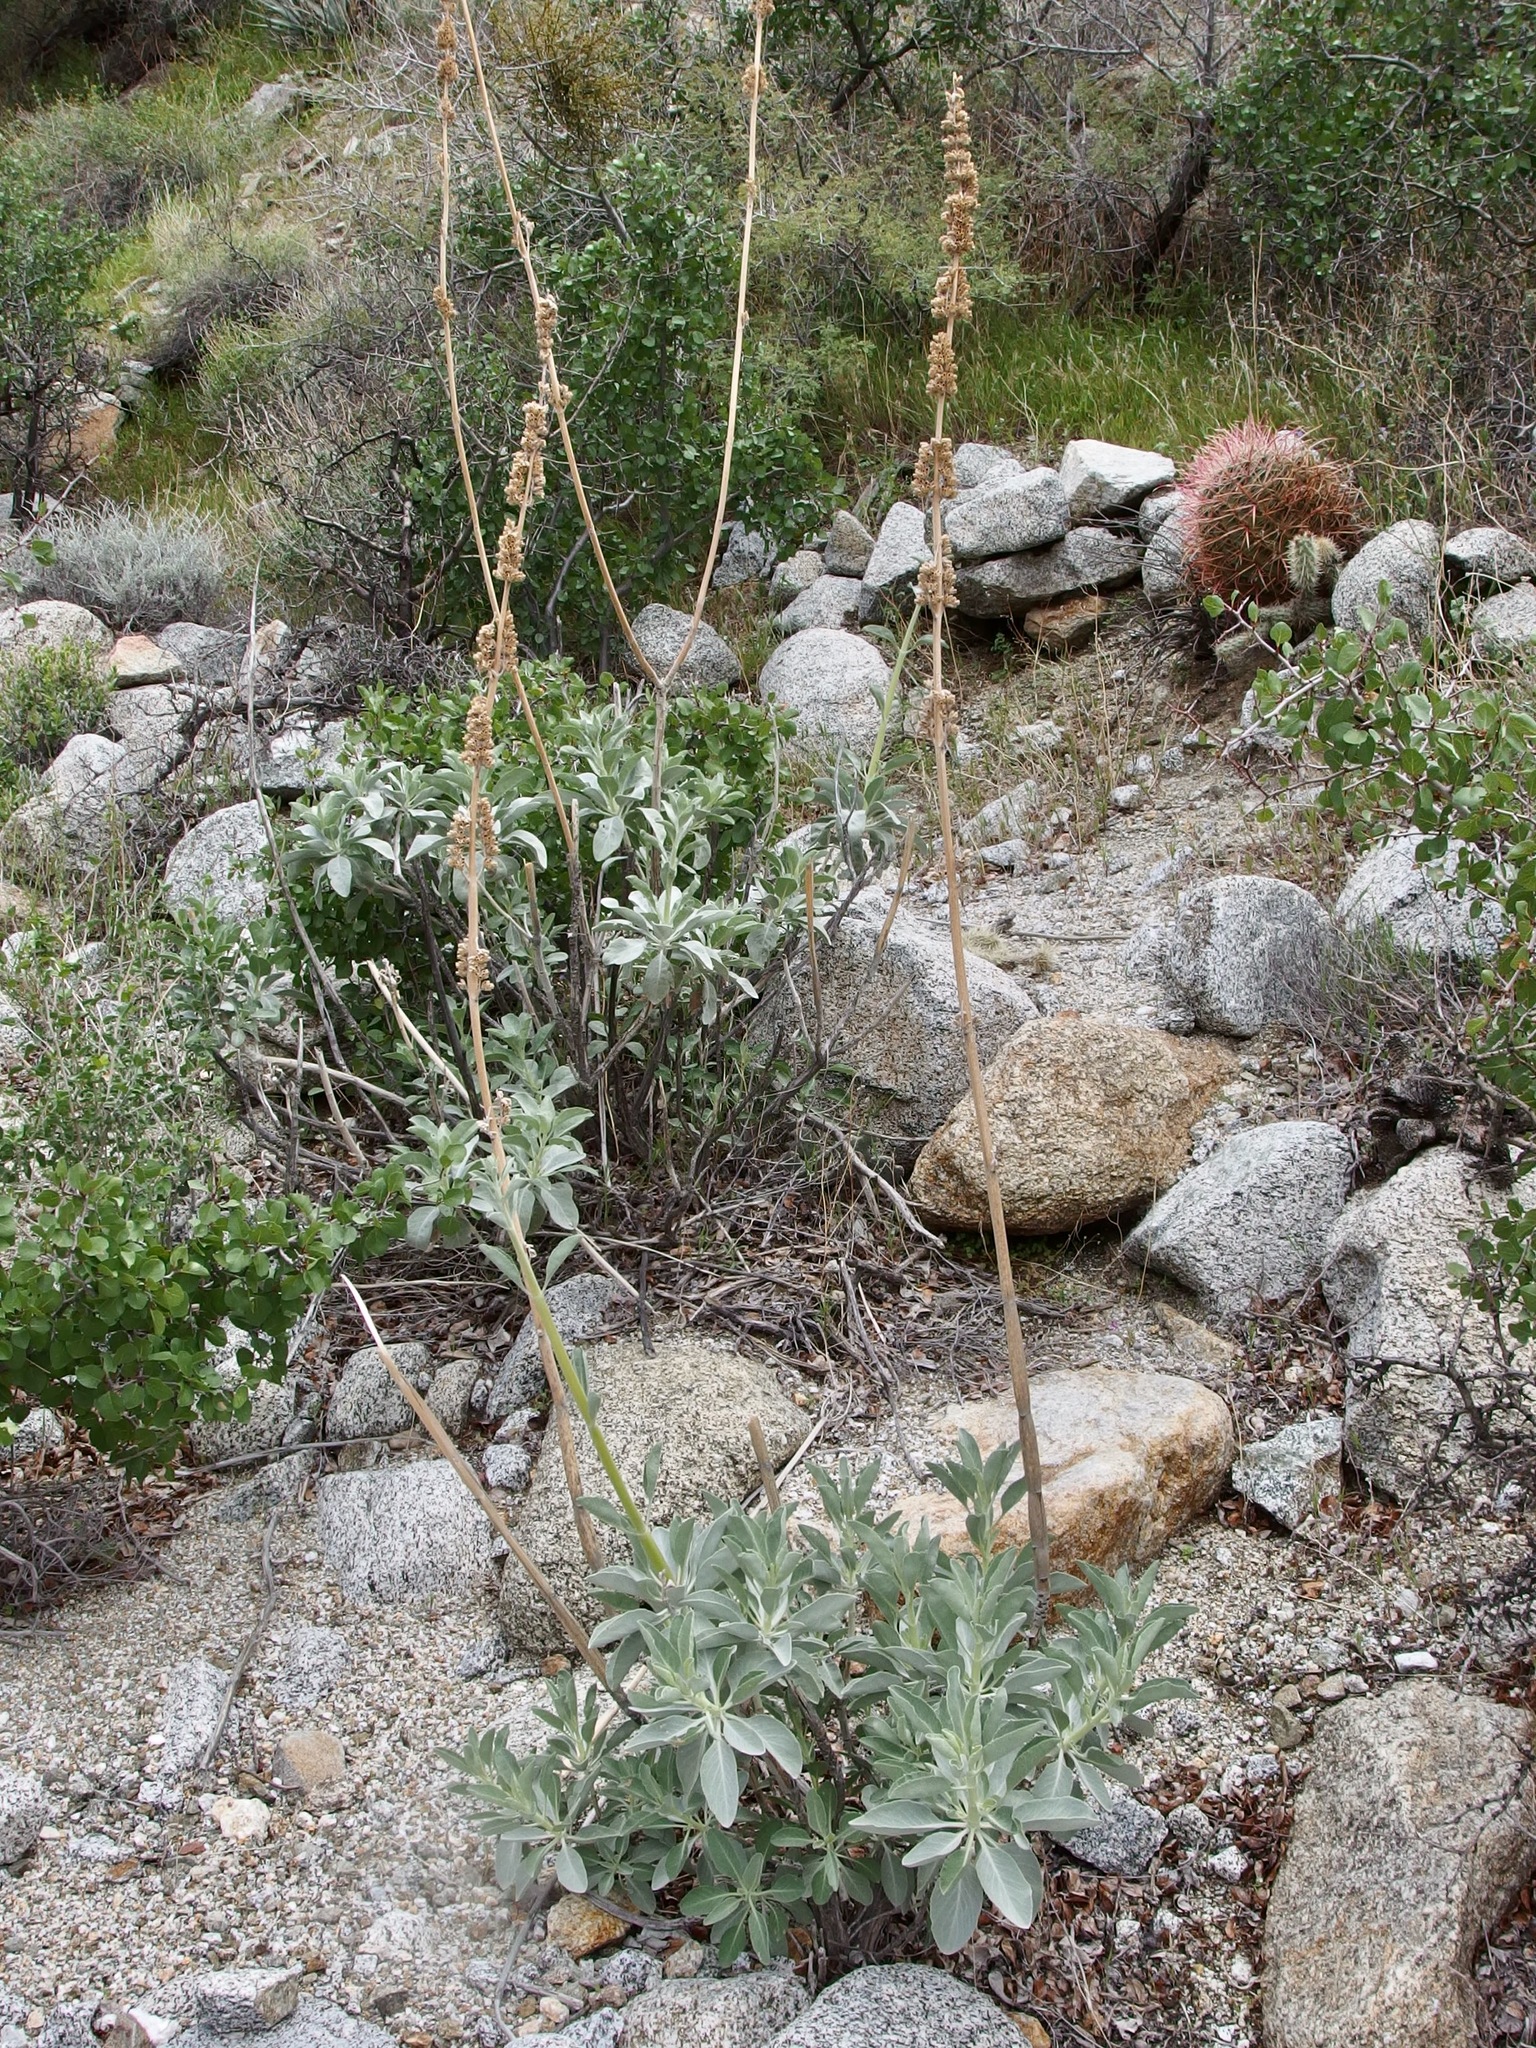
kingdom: Plantae
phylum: Tracheophyta
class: Magnoliopsida
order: Lamiales
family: Lamiaceae
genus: Salvia
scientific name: Salvia apiana
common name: White sage
